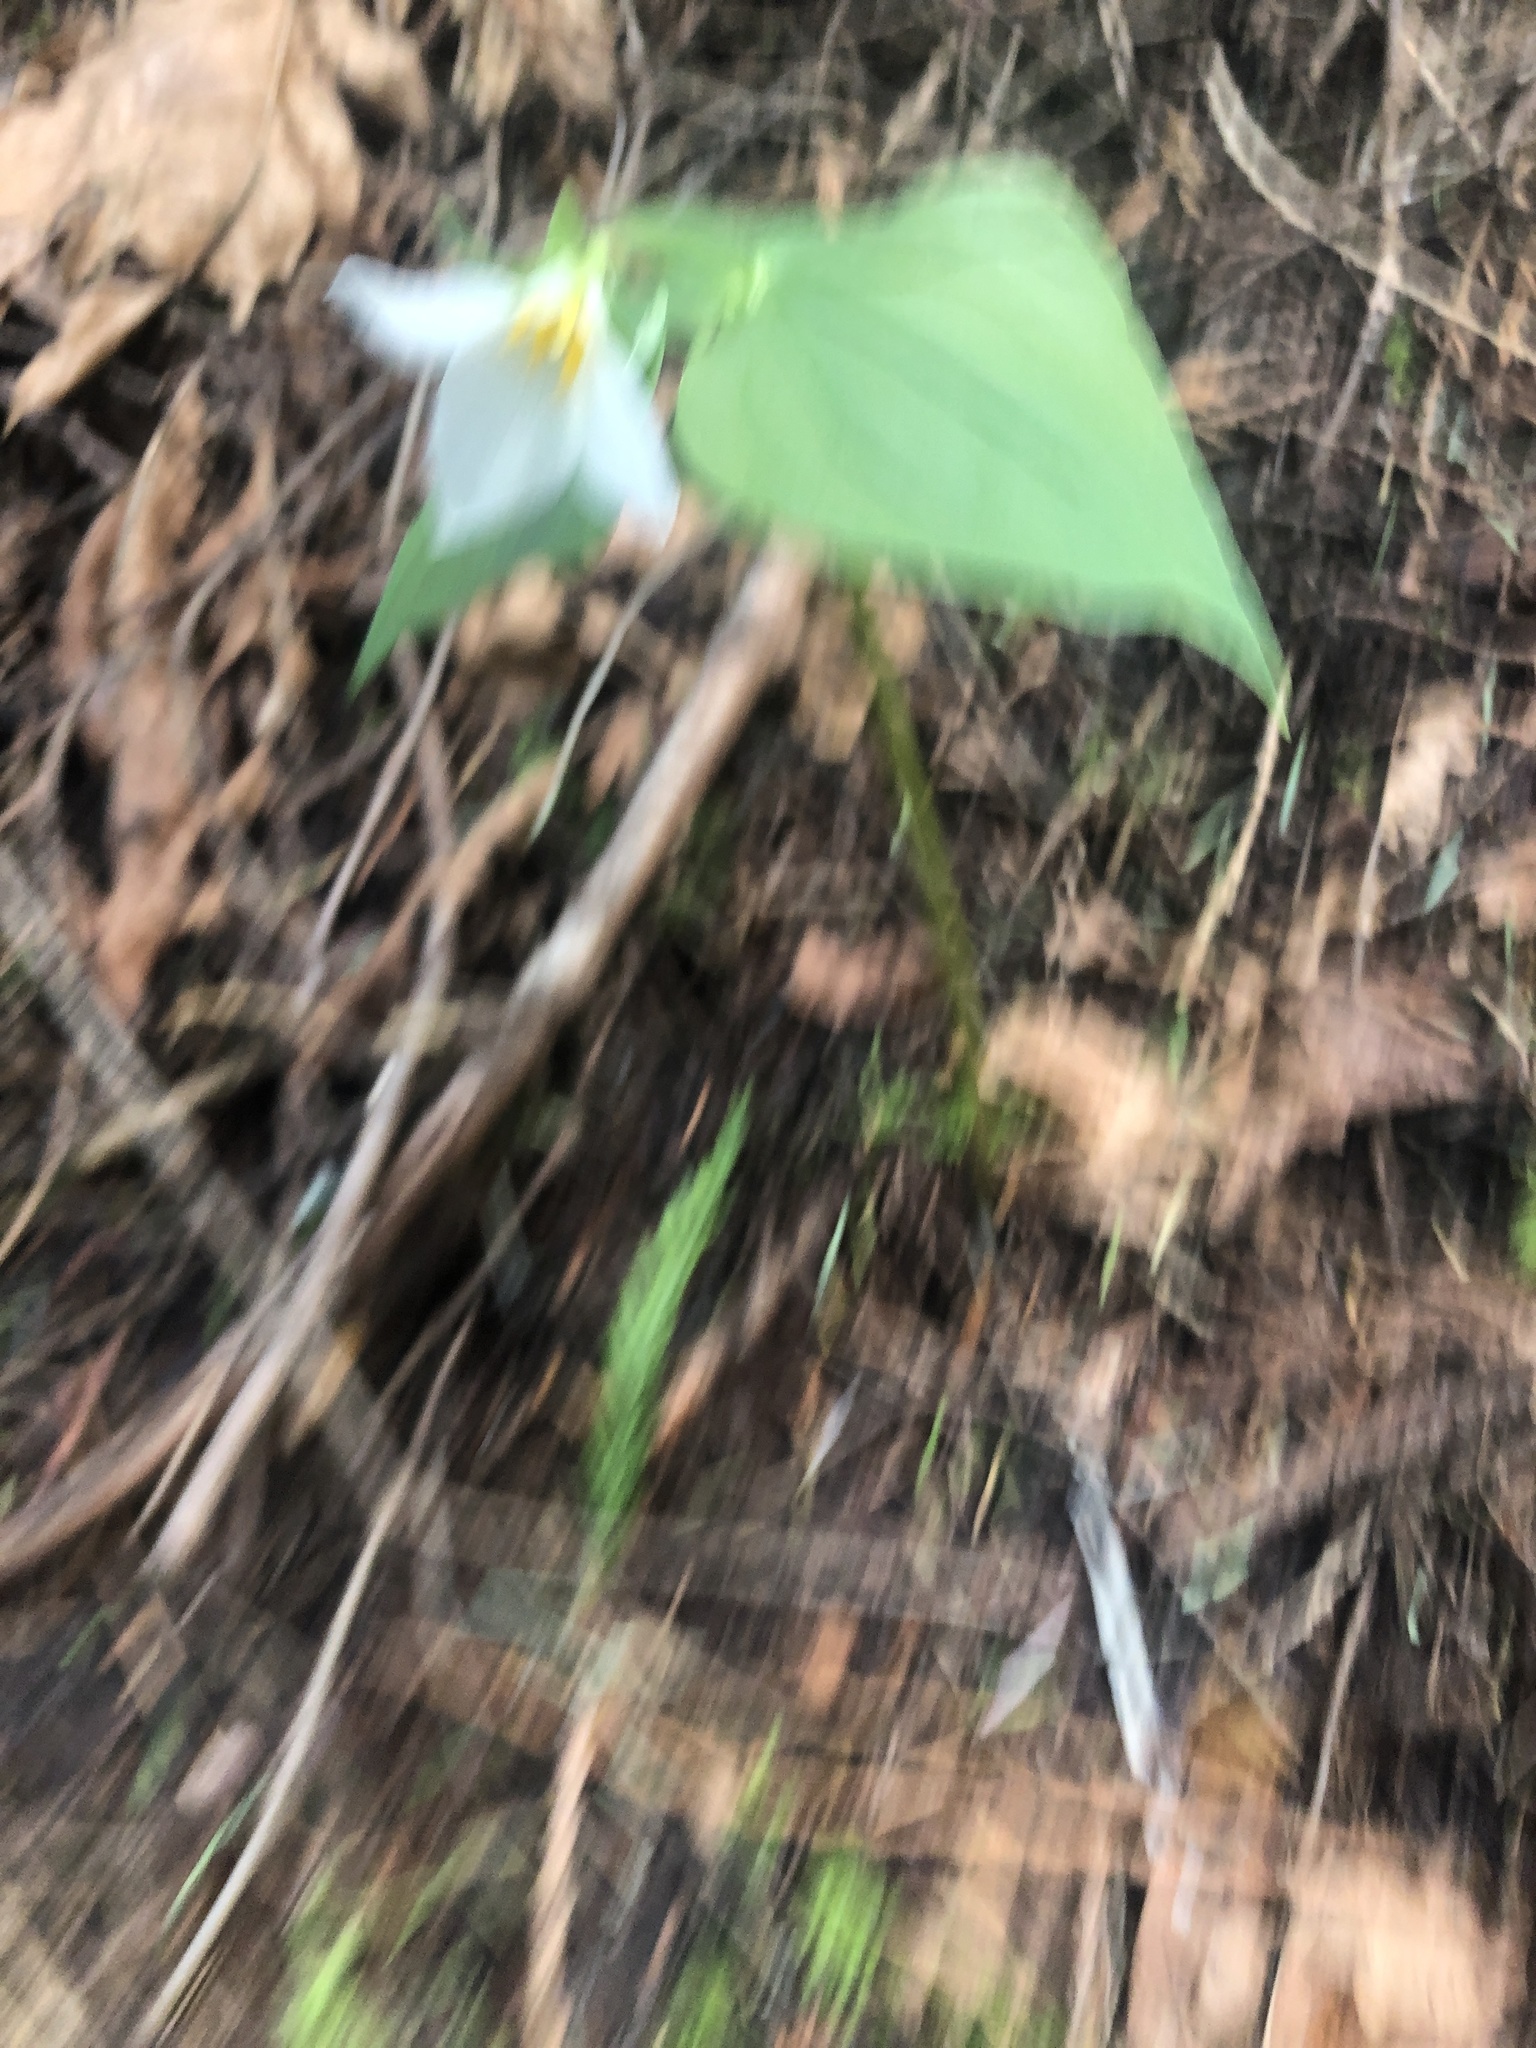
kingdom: Plantae
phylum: Tracheophyta
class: Liliopsida
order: Liliales
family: Melanthiaceae
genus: Trillium
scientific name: Trillium ovatum
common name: Pacific trillium
